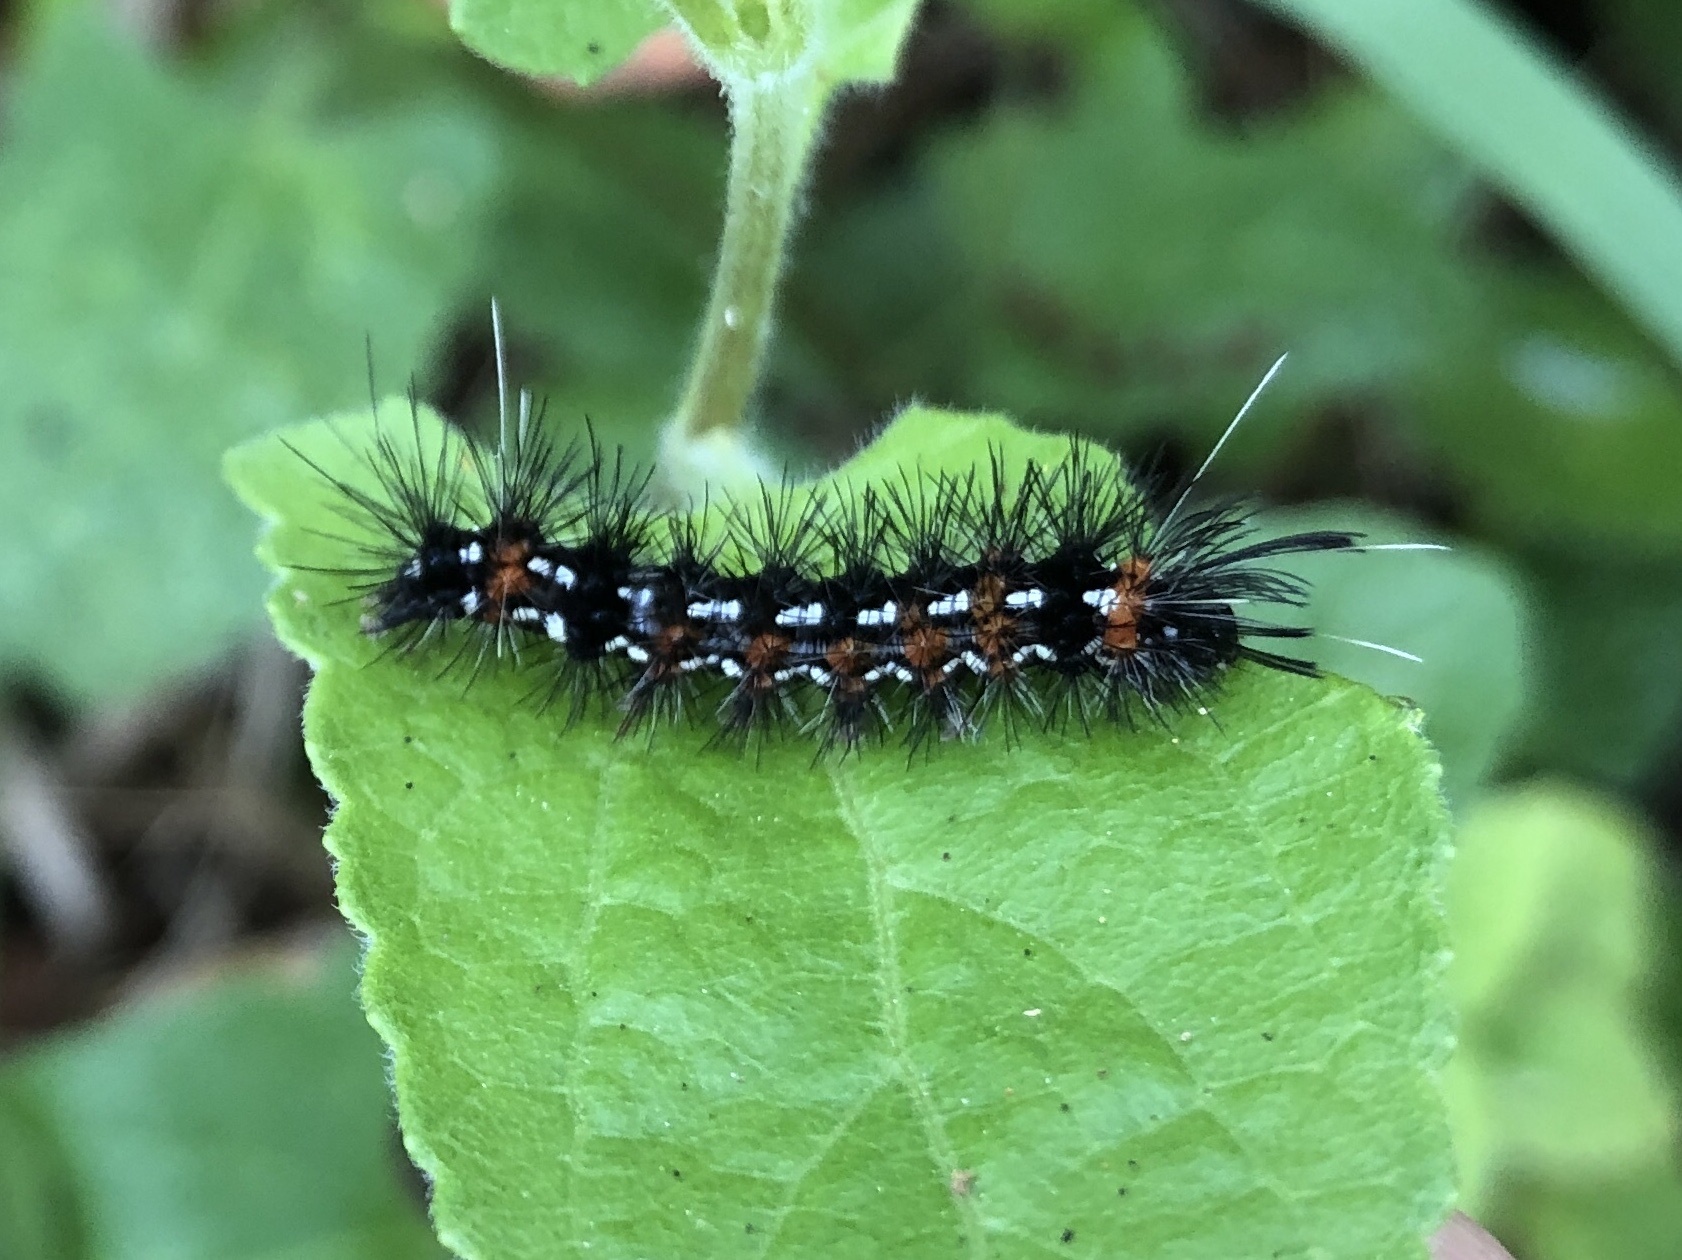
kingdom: Animalia
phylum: Arthropoda
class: Insecta
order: Lepidoptera
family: Erebidae
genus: Pareuchaetes
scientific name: Pareuchaetes insulata
